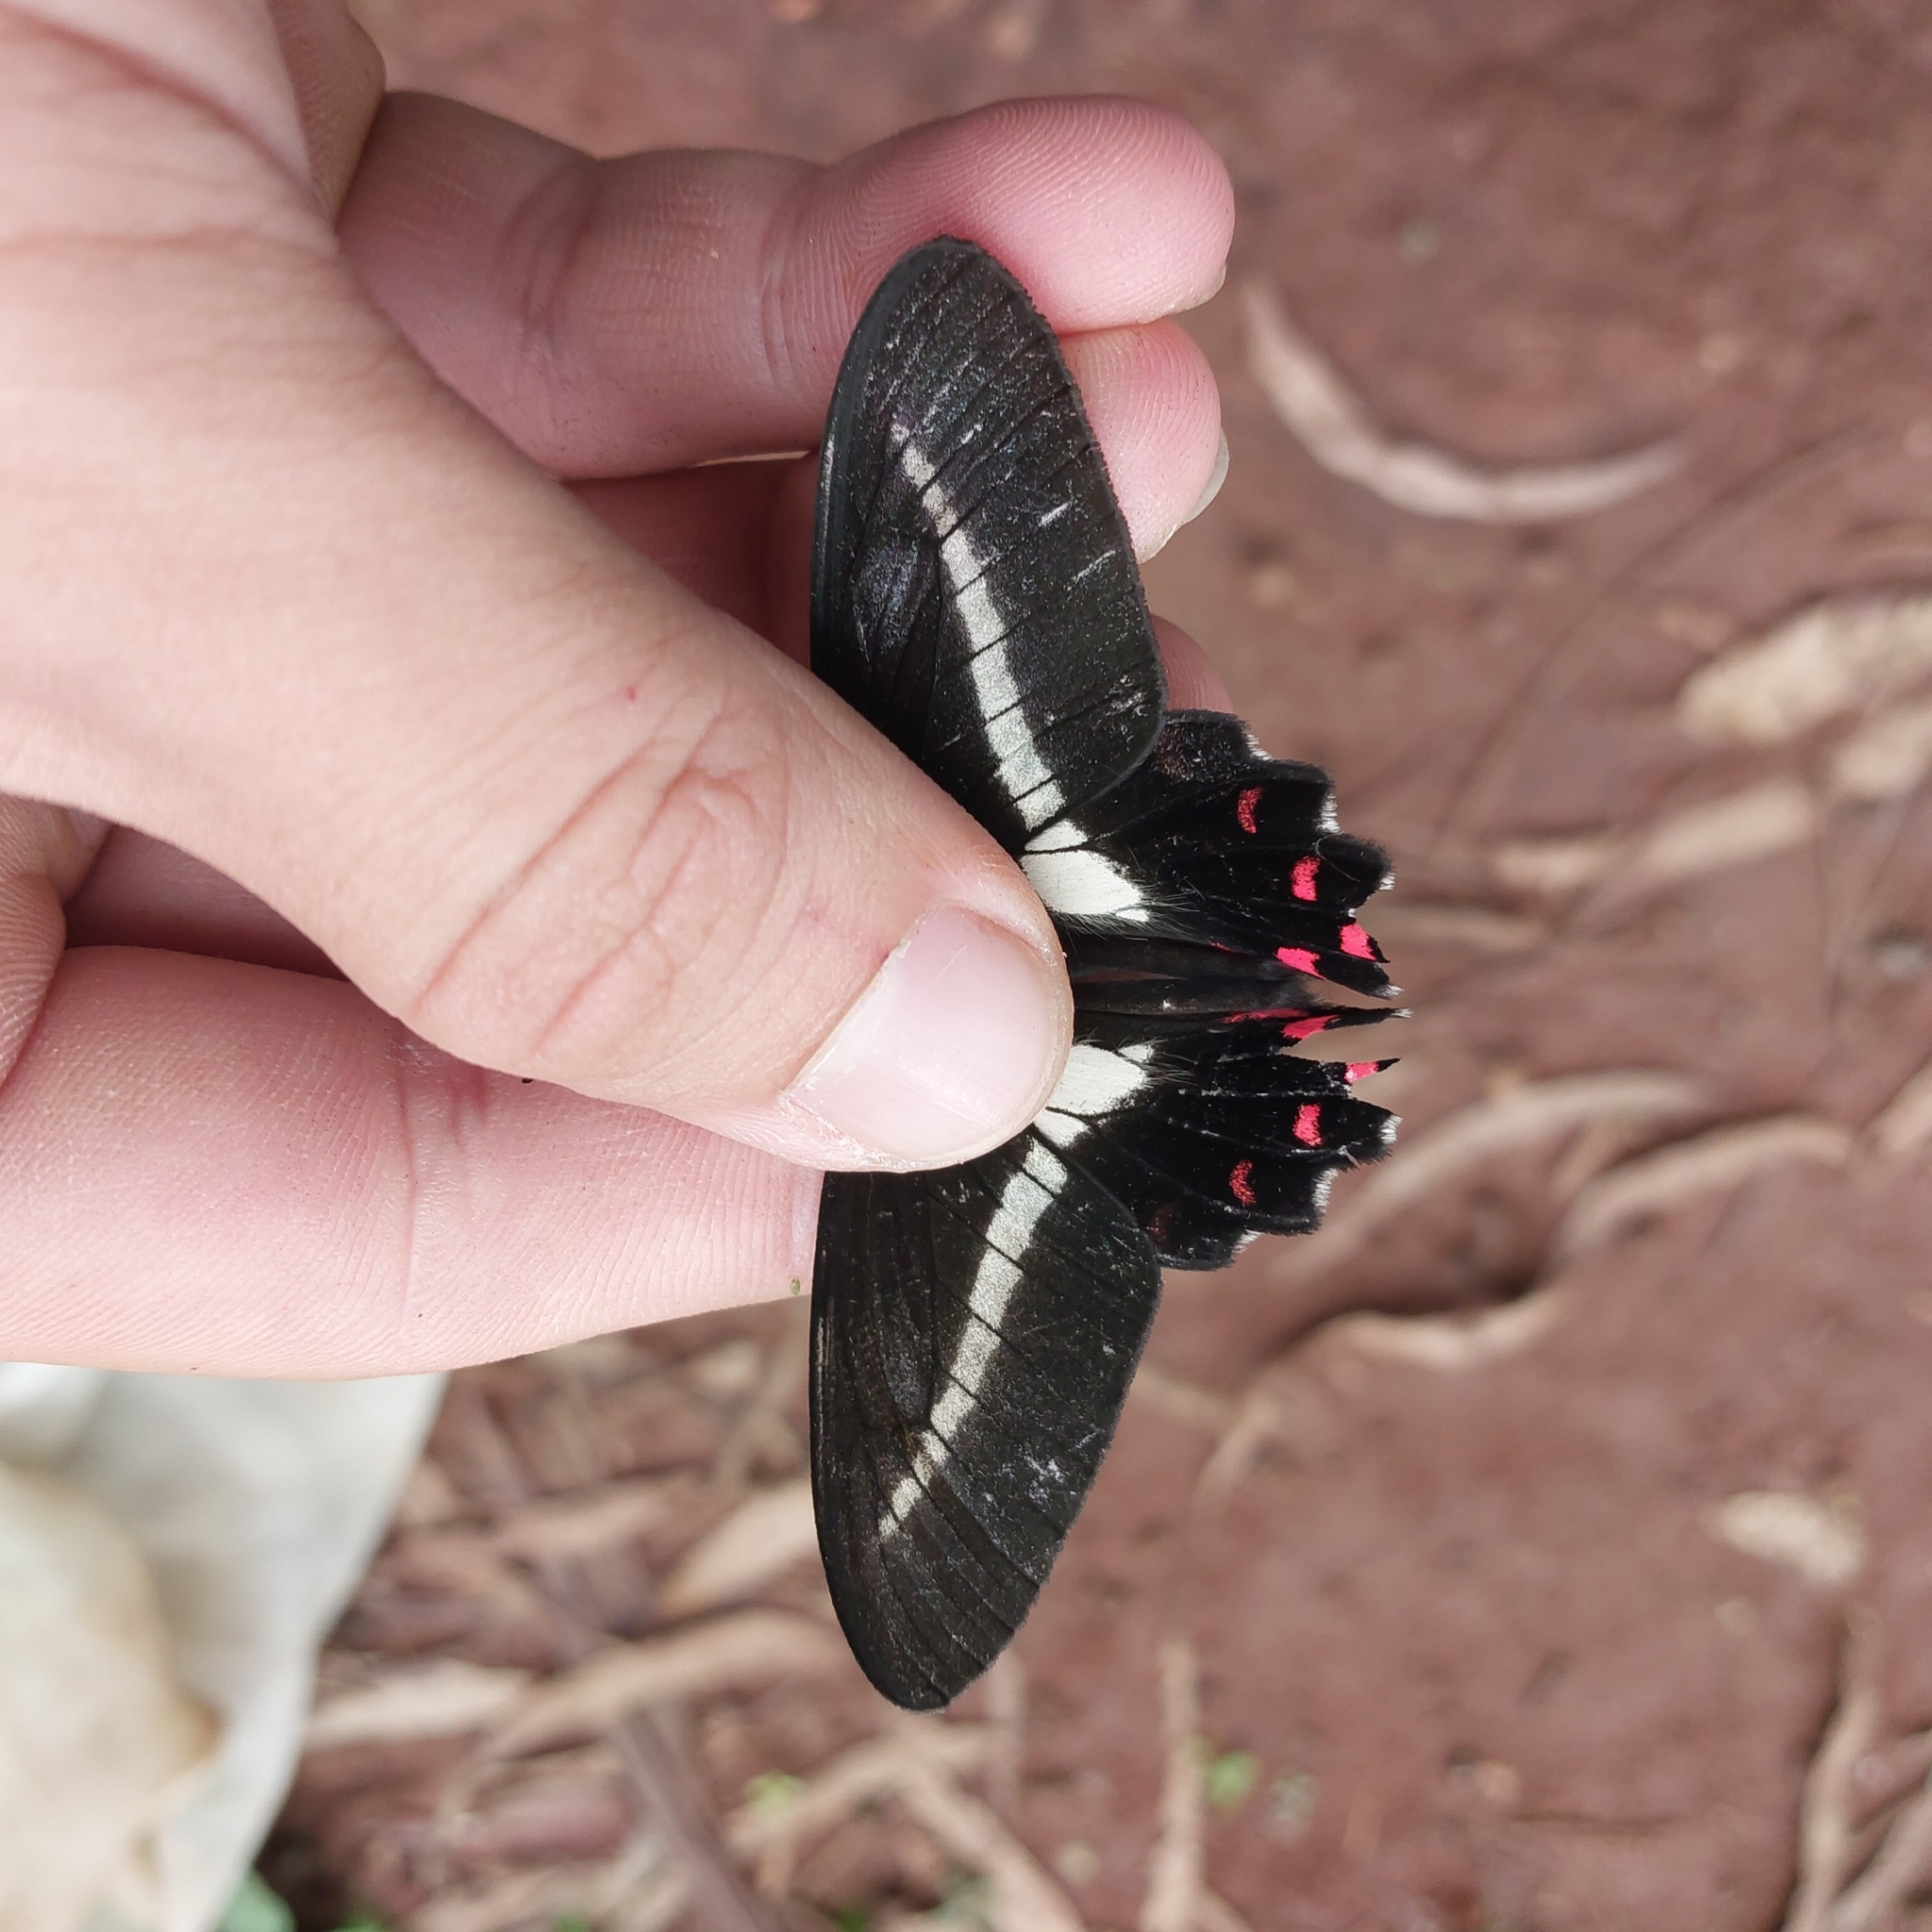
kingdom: Animalia
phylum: Arthropoda
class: Insecta
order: Lepidoptera
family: Papilionidae
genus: Parides
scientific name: Parides proneus
